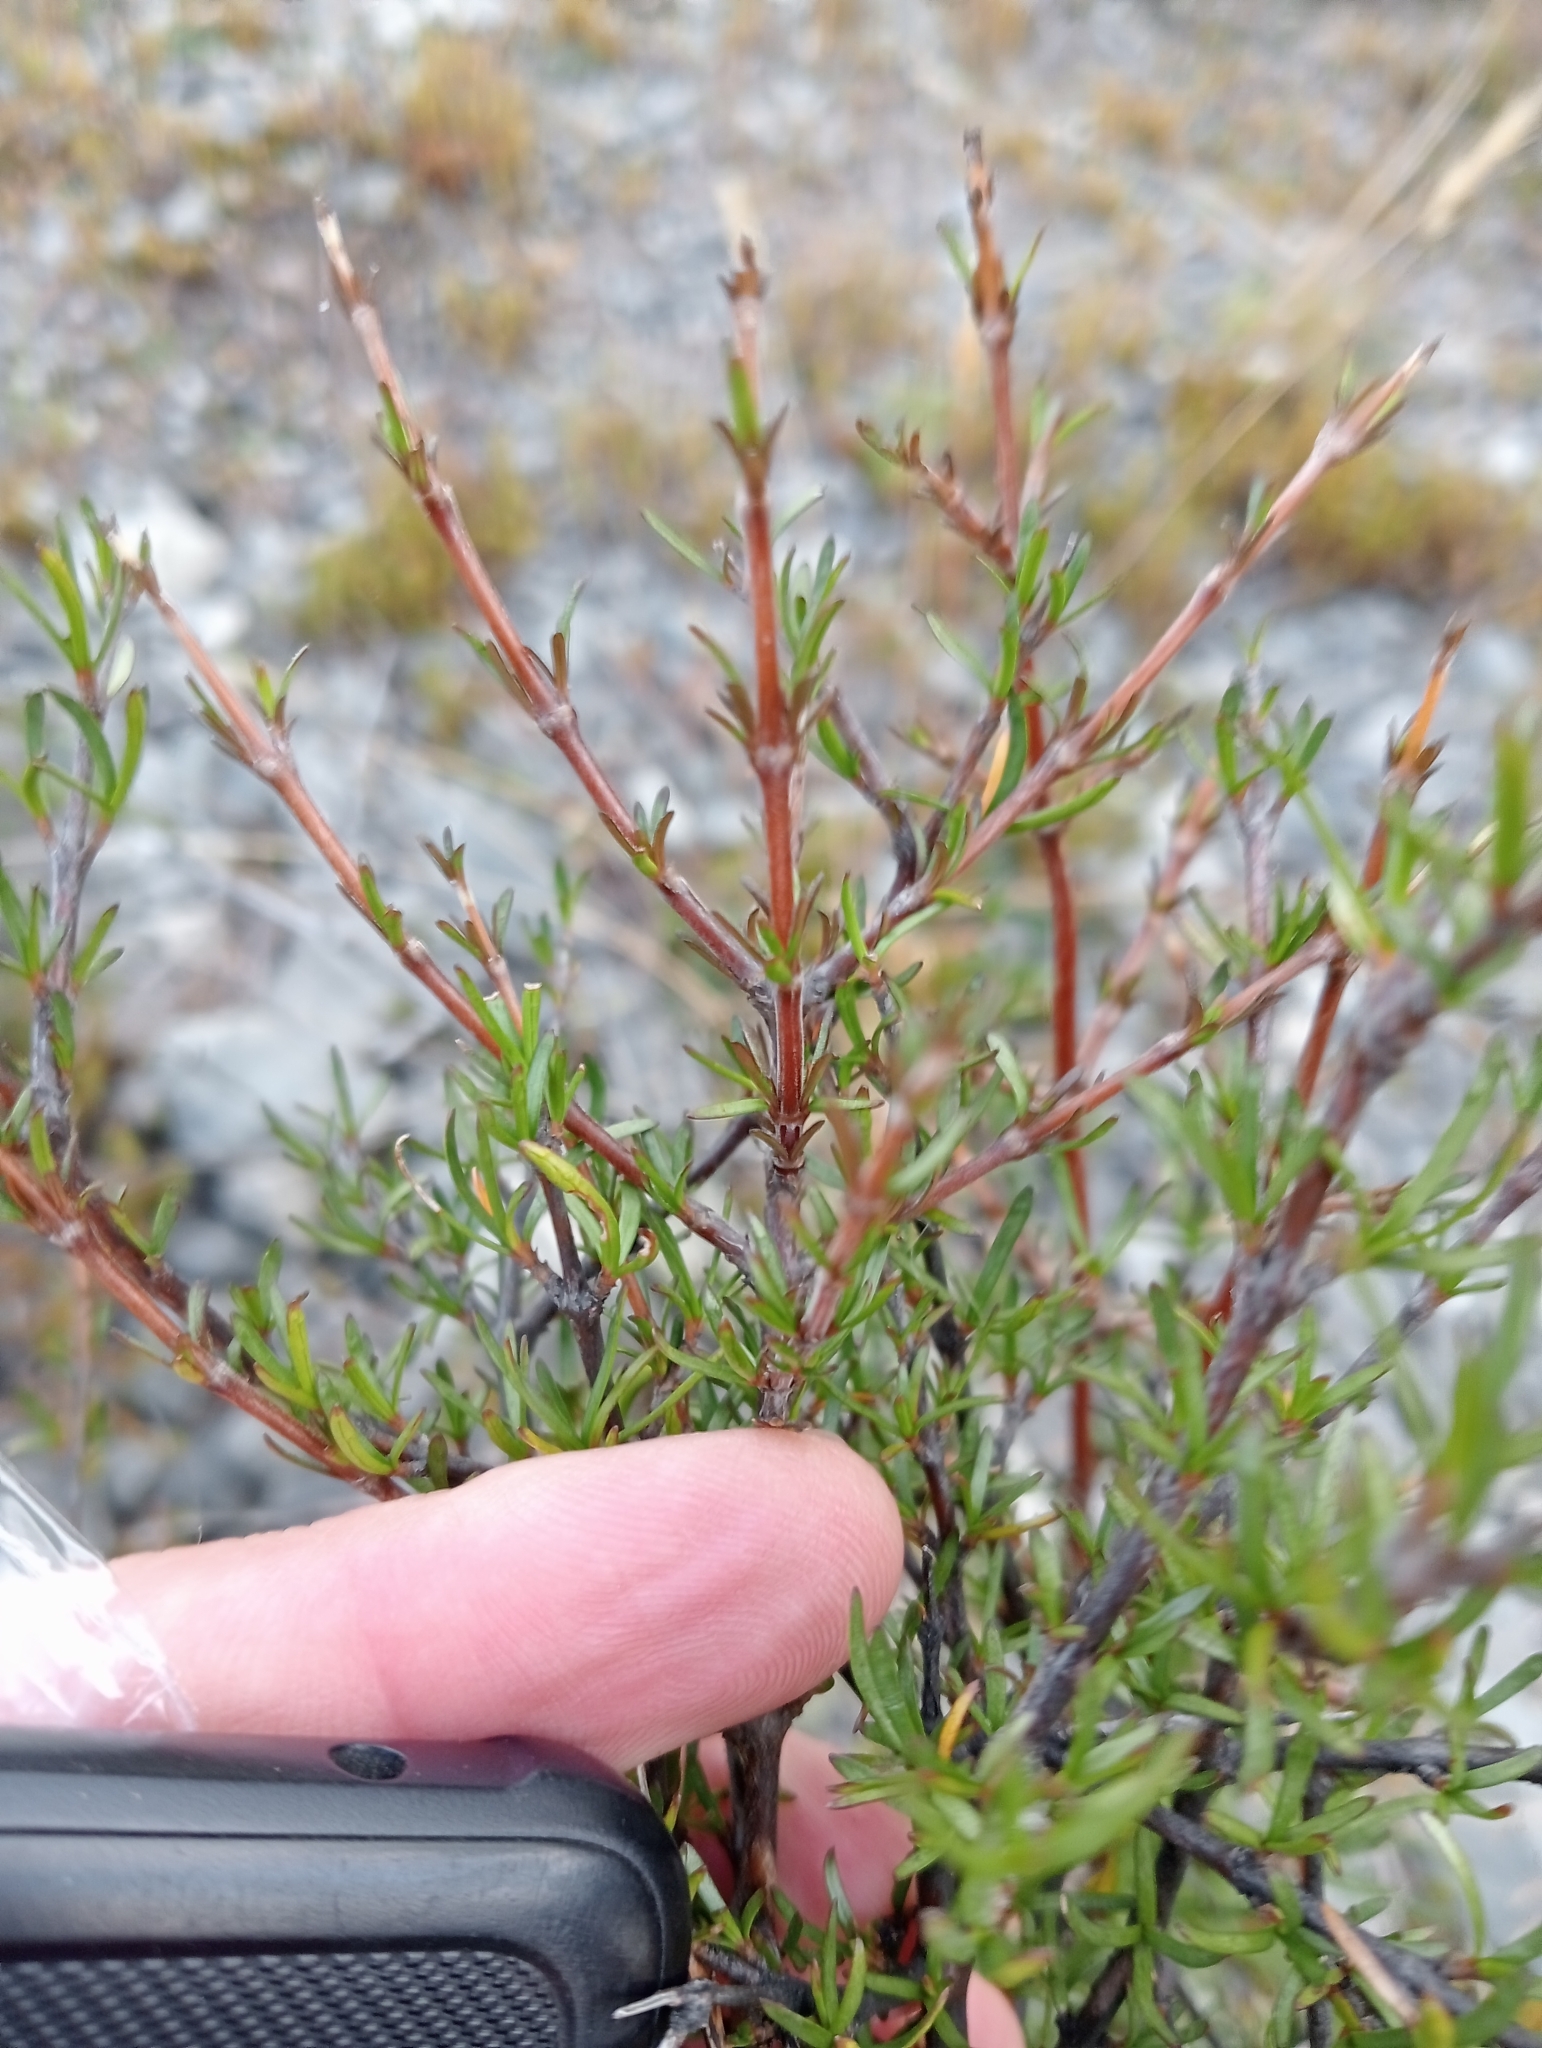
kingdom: Plantae
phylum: Tracheophyta
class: Magnoliopsida
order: Gentianales
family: Rubiaceae
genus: Coprosma
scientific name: Coprosma rugosa
